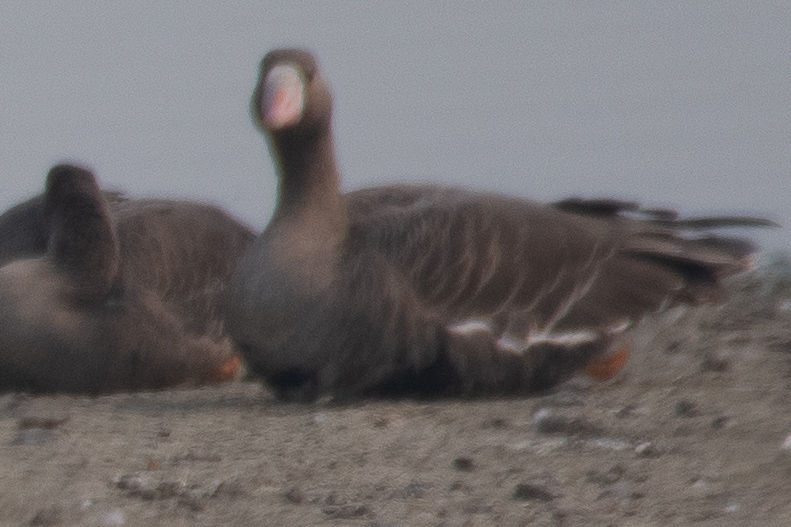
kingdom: Animalia
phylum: Chordata
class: Aves
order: Anseriformes
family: Anatidae
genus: Anser
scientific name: Anser albifrons
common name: Greater white-fronted goose
